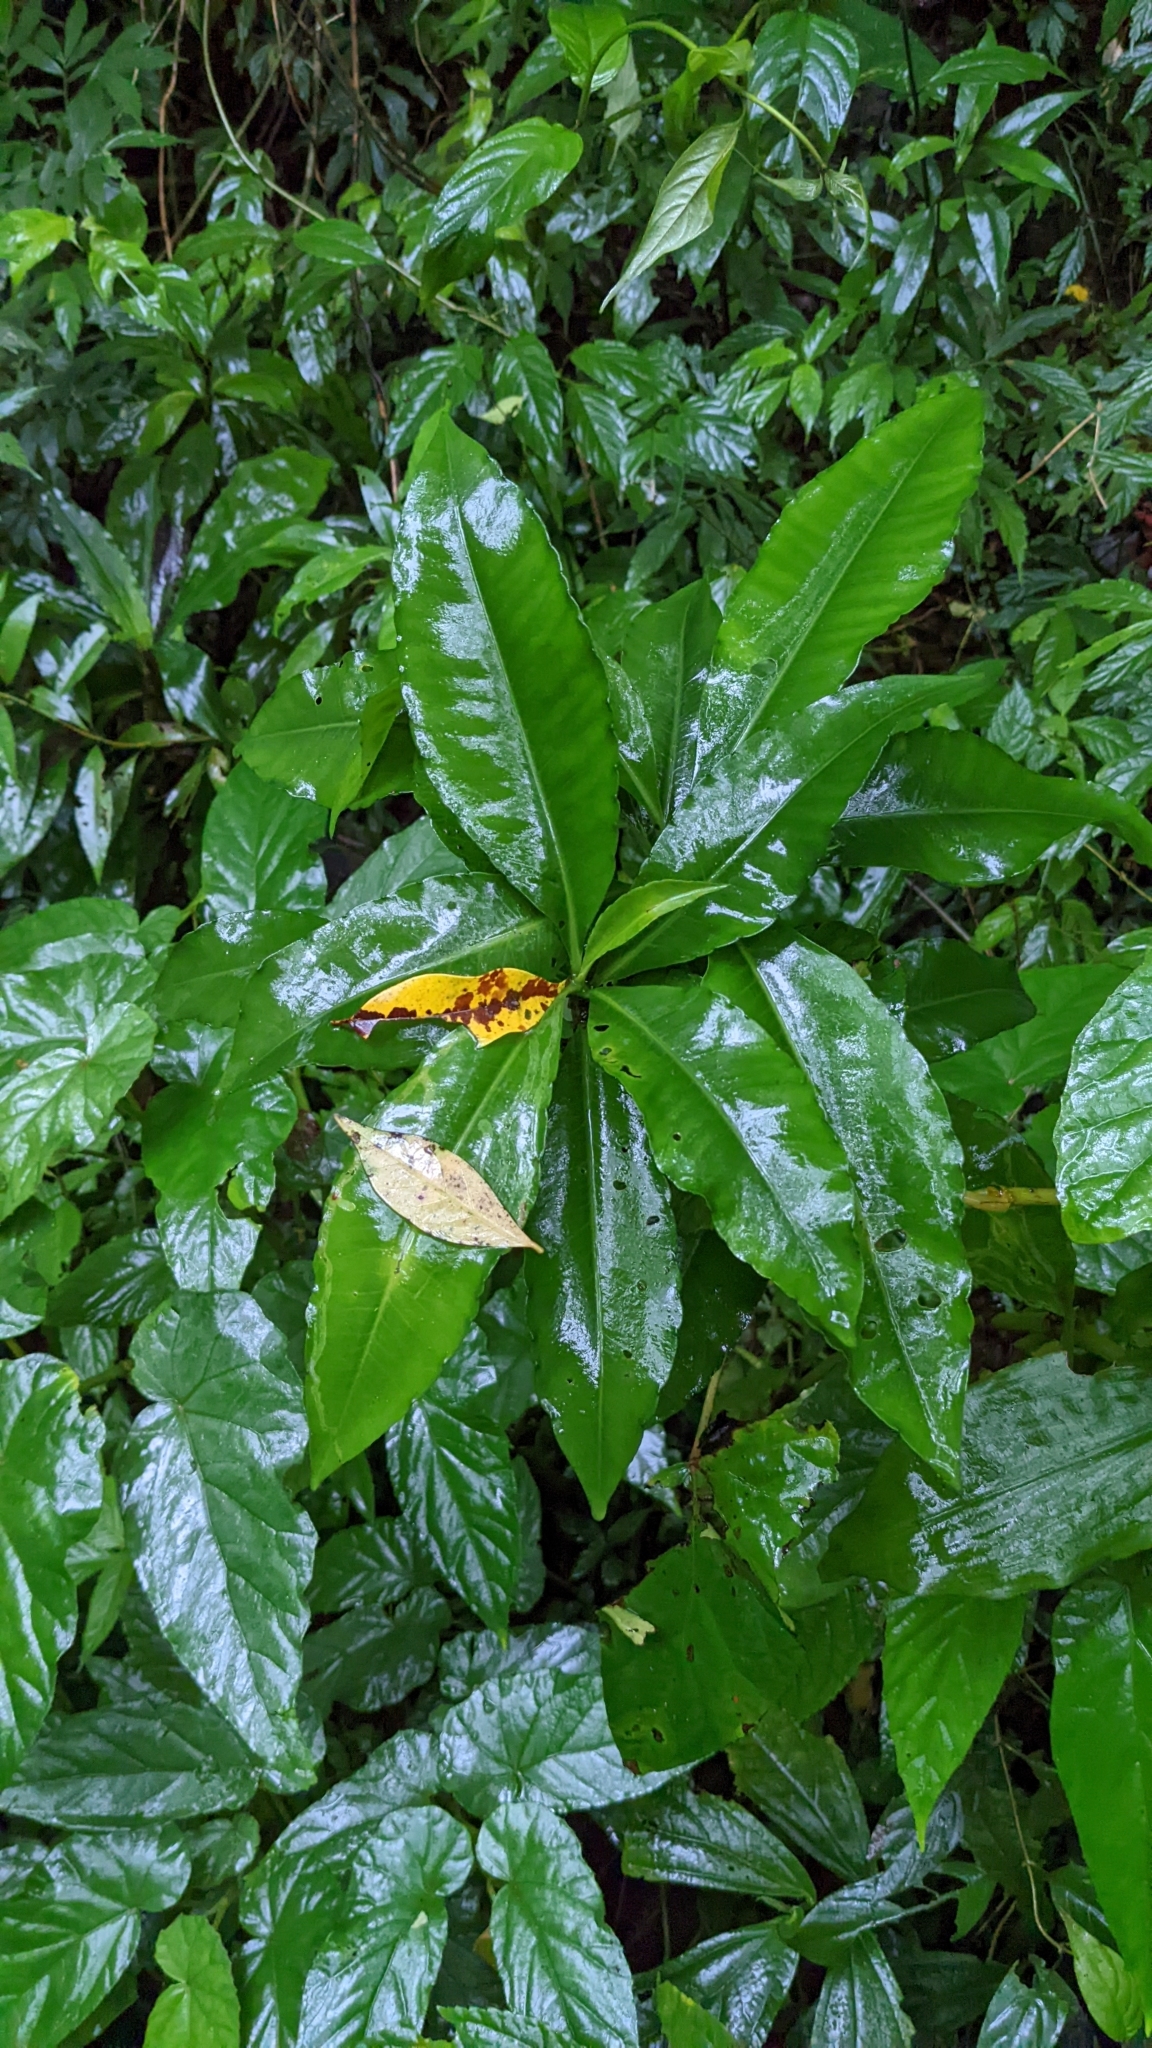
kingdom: Plantae
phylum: Tracheophyta
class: Magnoliopsida
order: Ericales
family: Primulaceae
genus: Ardisia
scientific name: Ardisia polysticta
